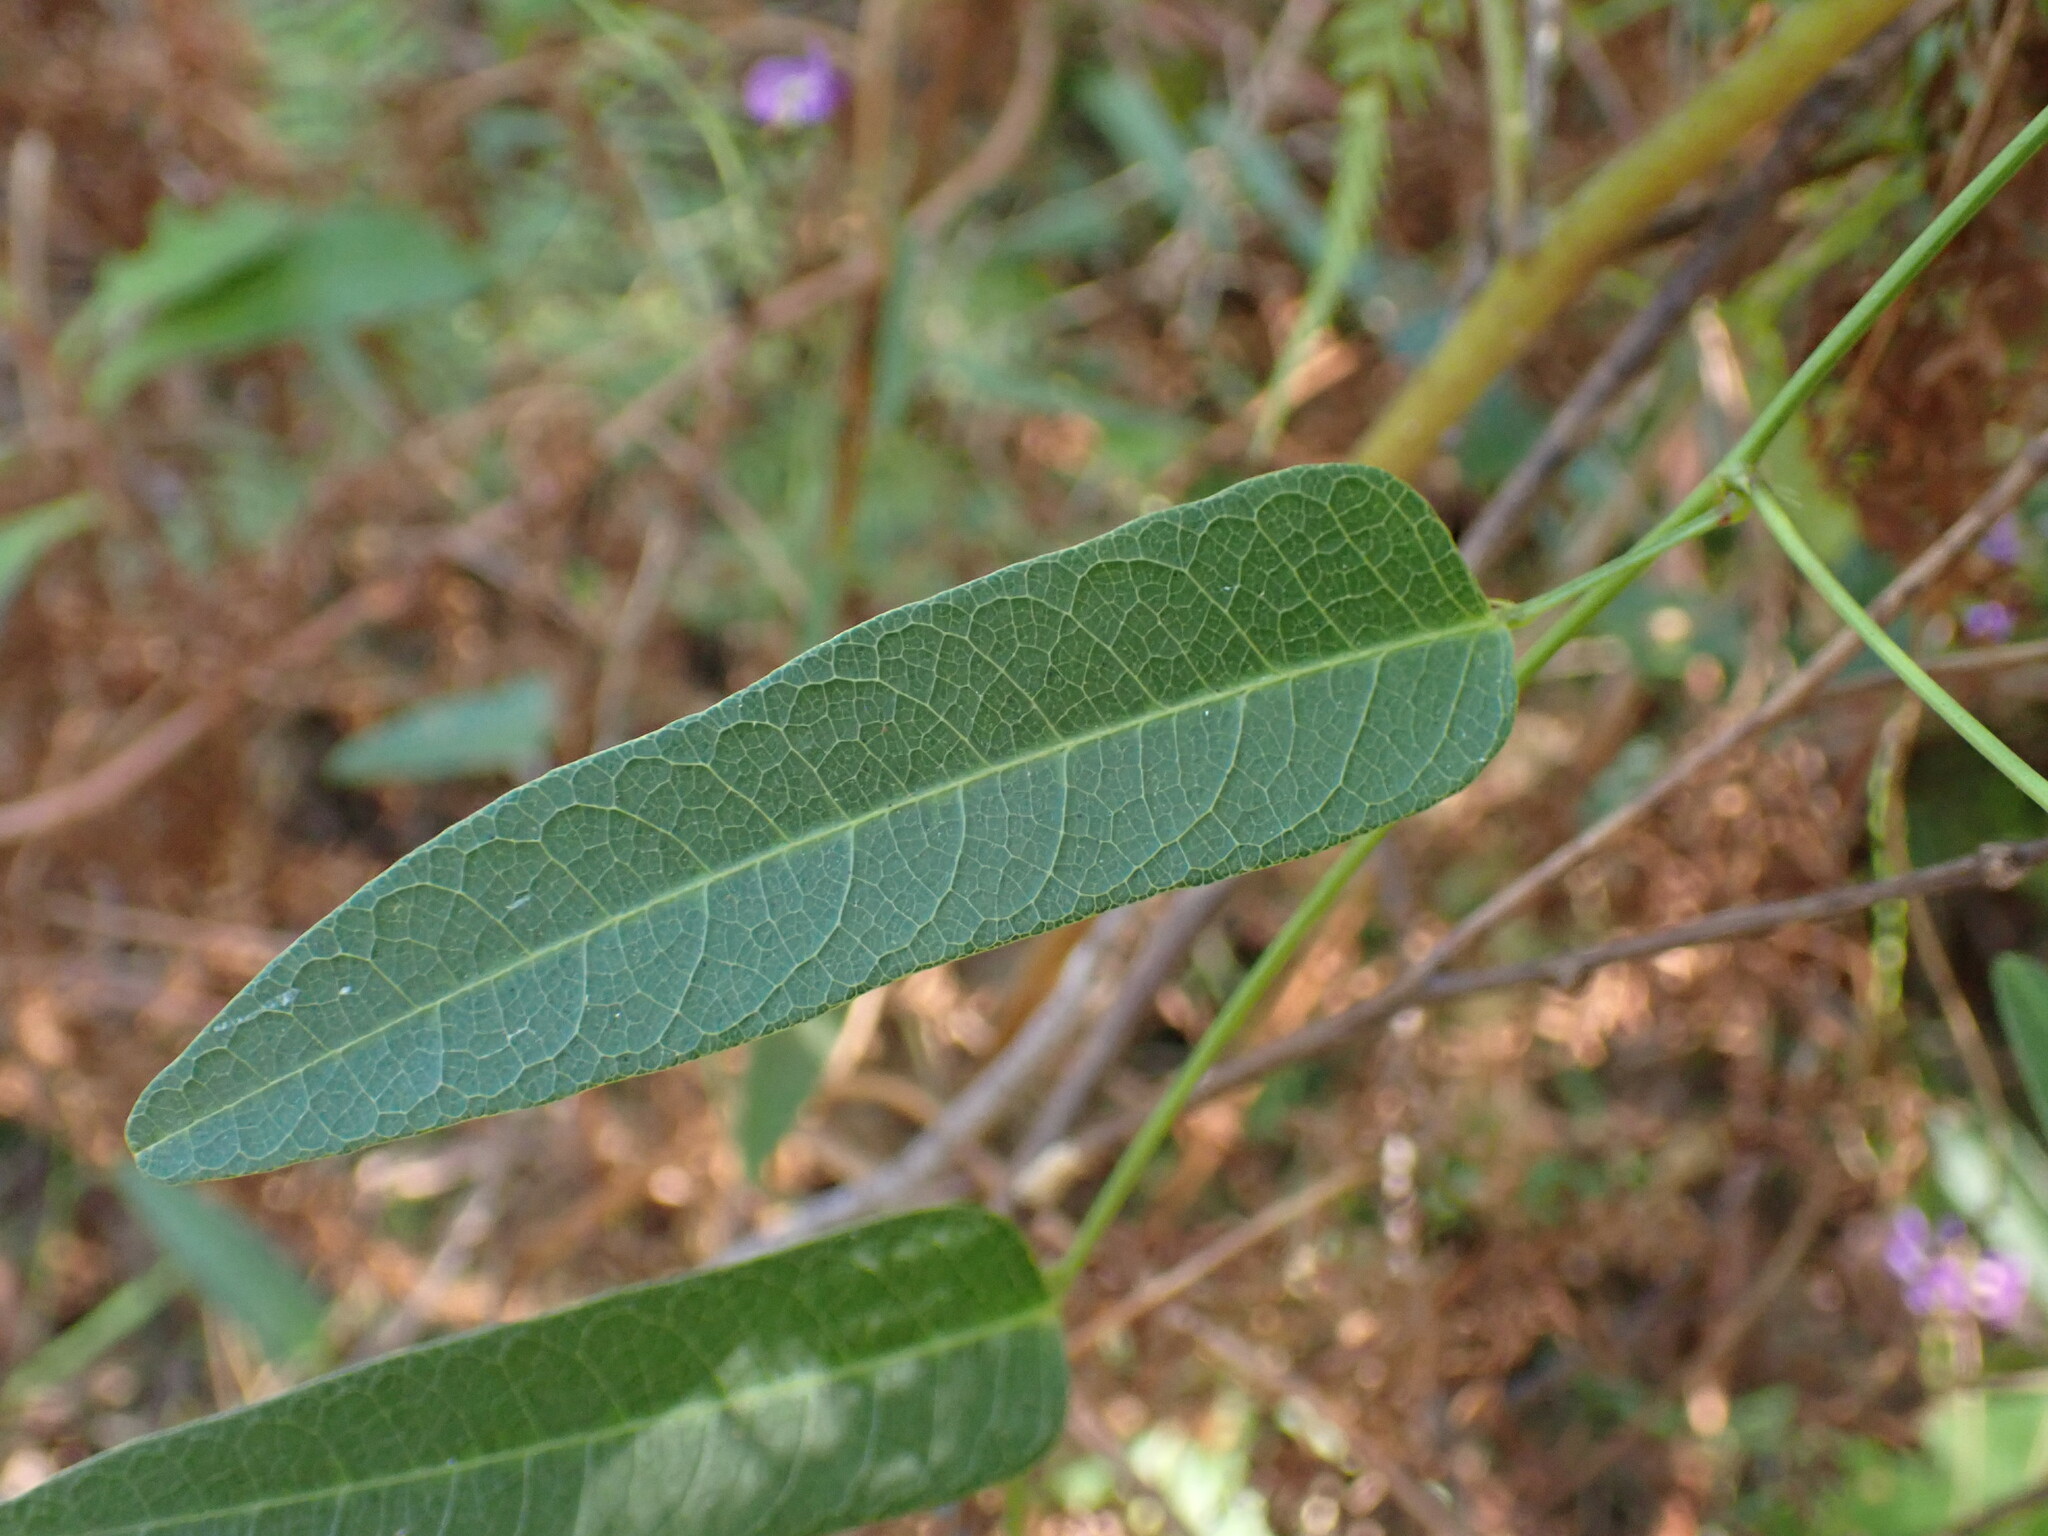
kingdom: Plantae
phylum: Tracheophyta
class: Magnoliopsida
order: Fabales
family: Fabaceae
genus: Hardenbergia
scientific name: Hardenbergia violacea
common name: Coral-pea
